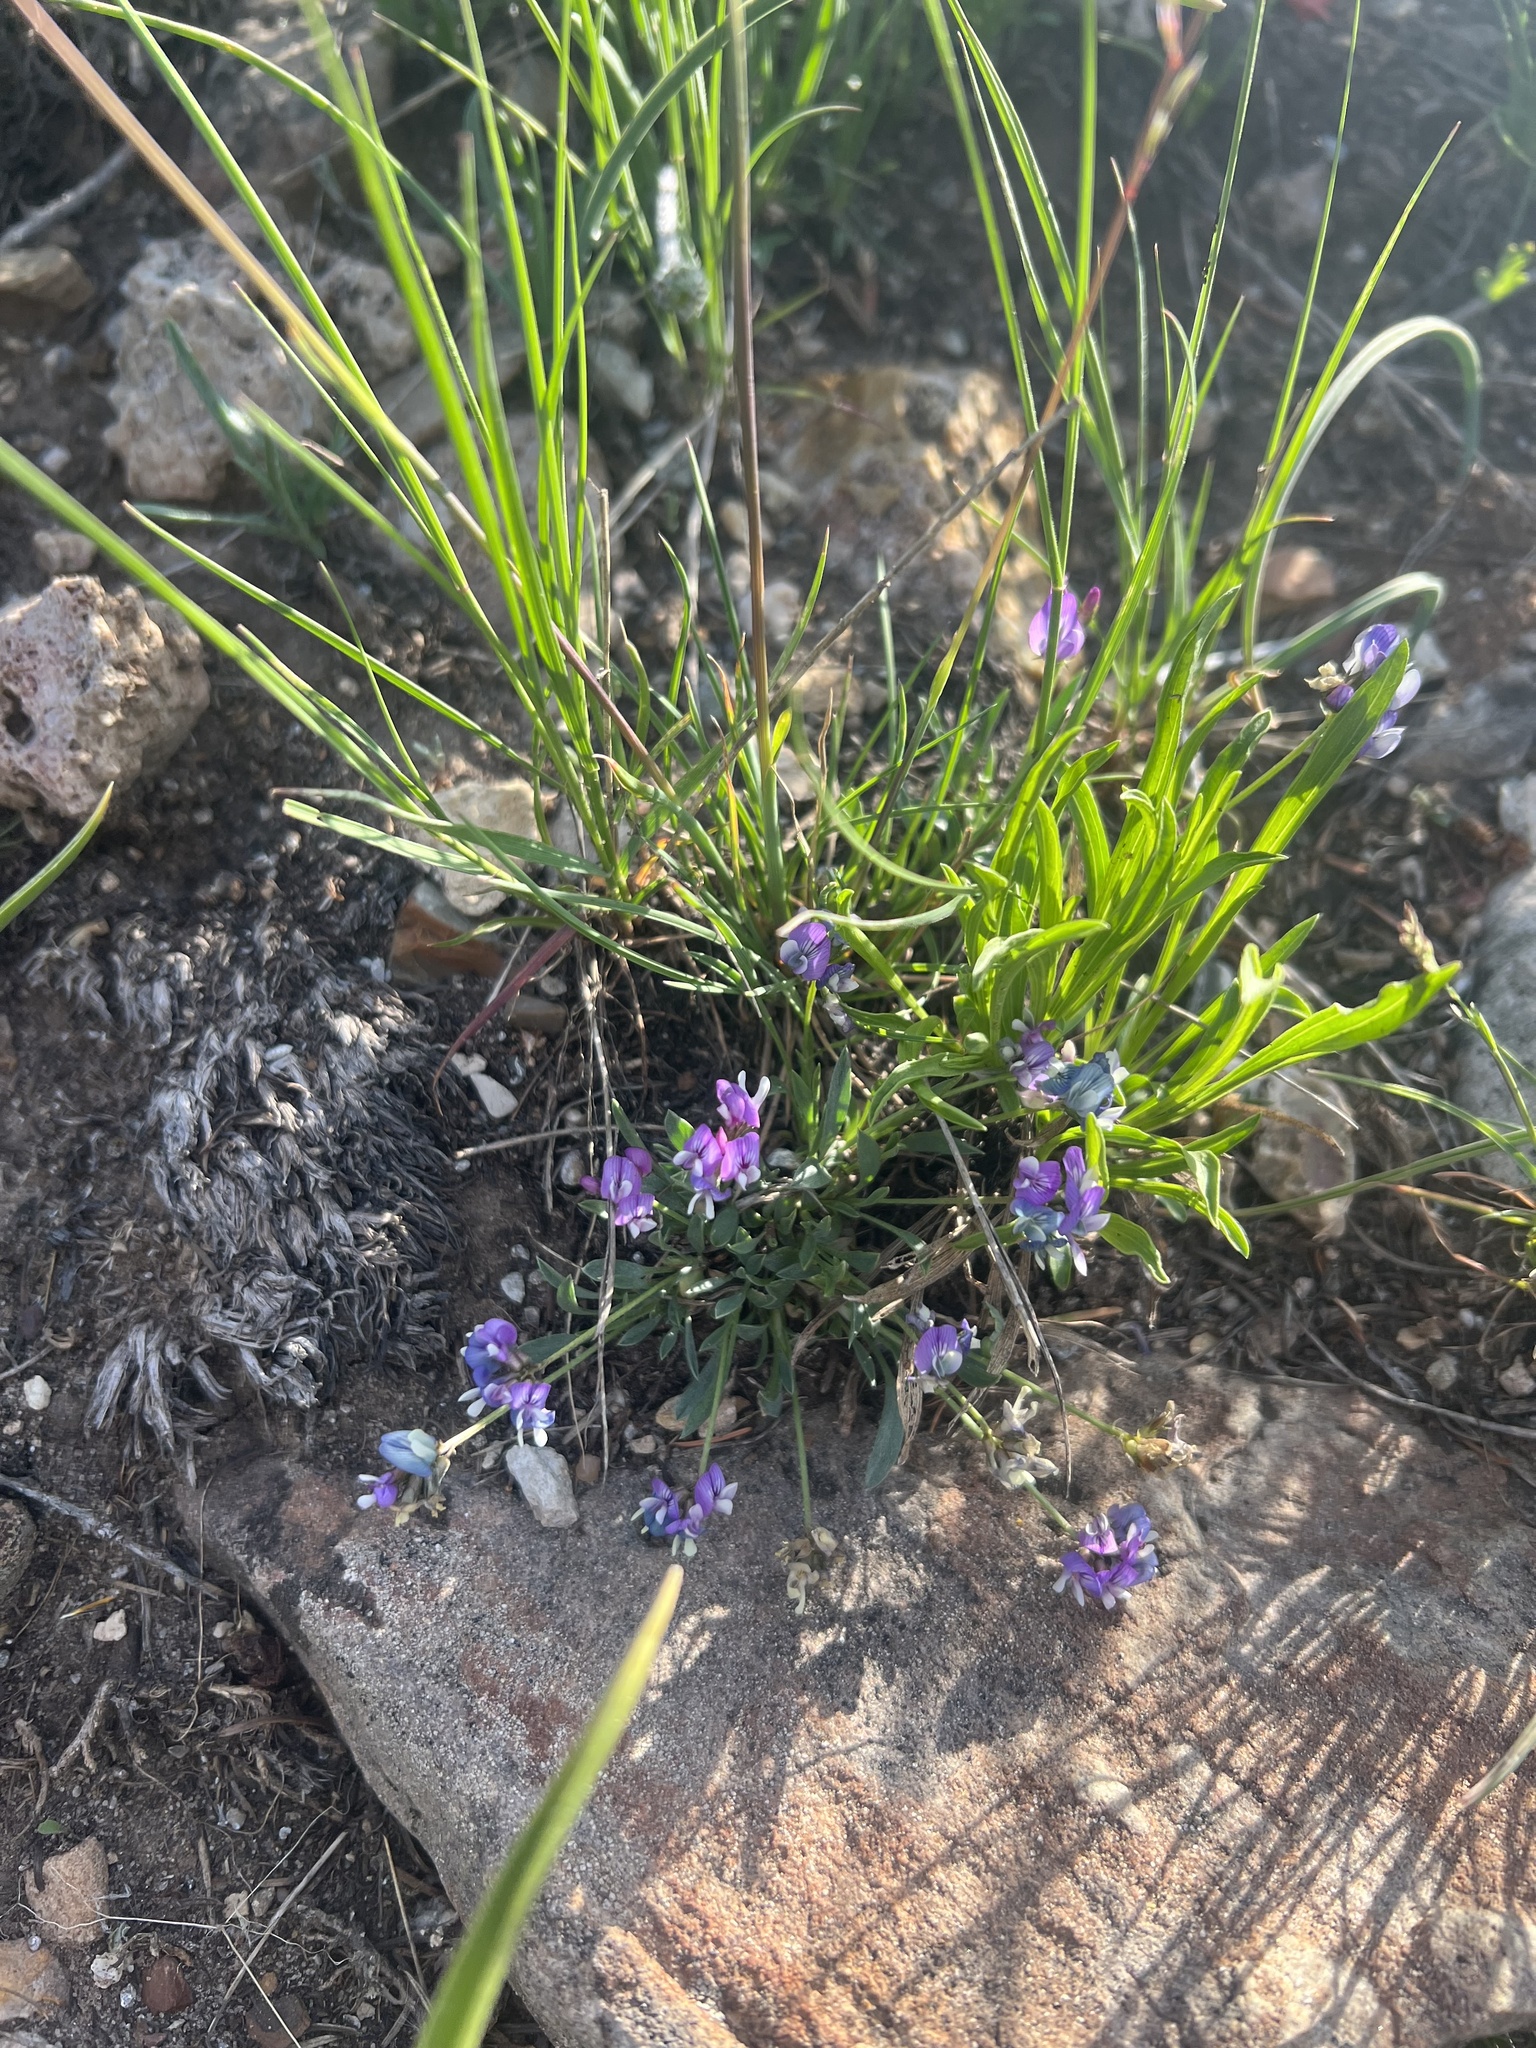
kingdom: Plantae
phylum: Tracheophyta
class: Magnoliopsida
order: Fabales
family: Fabaceae
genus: Astragalus
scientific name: Astragalus spatulatus
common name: Draba milk-vetch
